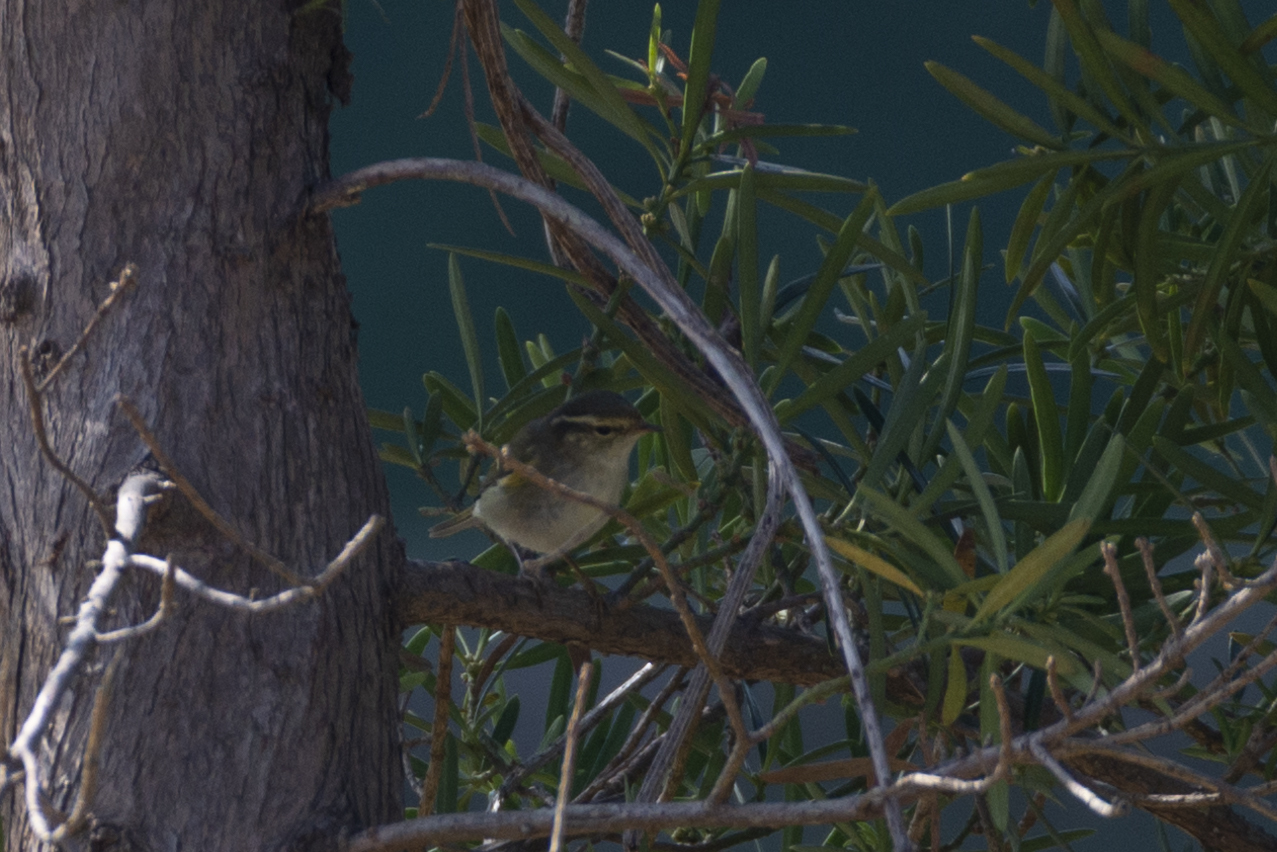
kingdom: Animalia
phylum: Chordata
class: Aves
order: Passeriformes
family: Phylloscopidae
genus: Phylloscopus
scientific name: Phylloscopus inornatus
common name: Yellow-browed warbler
